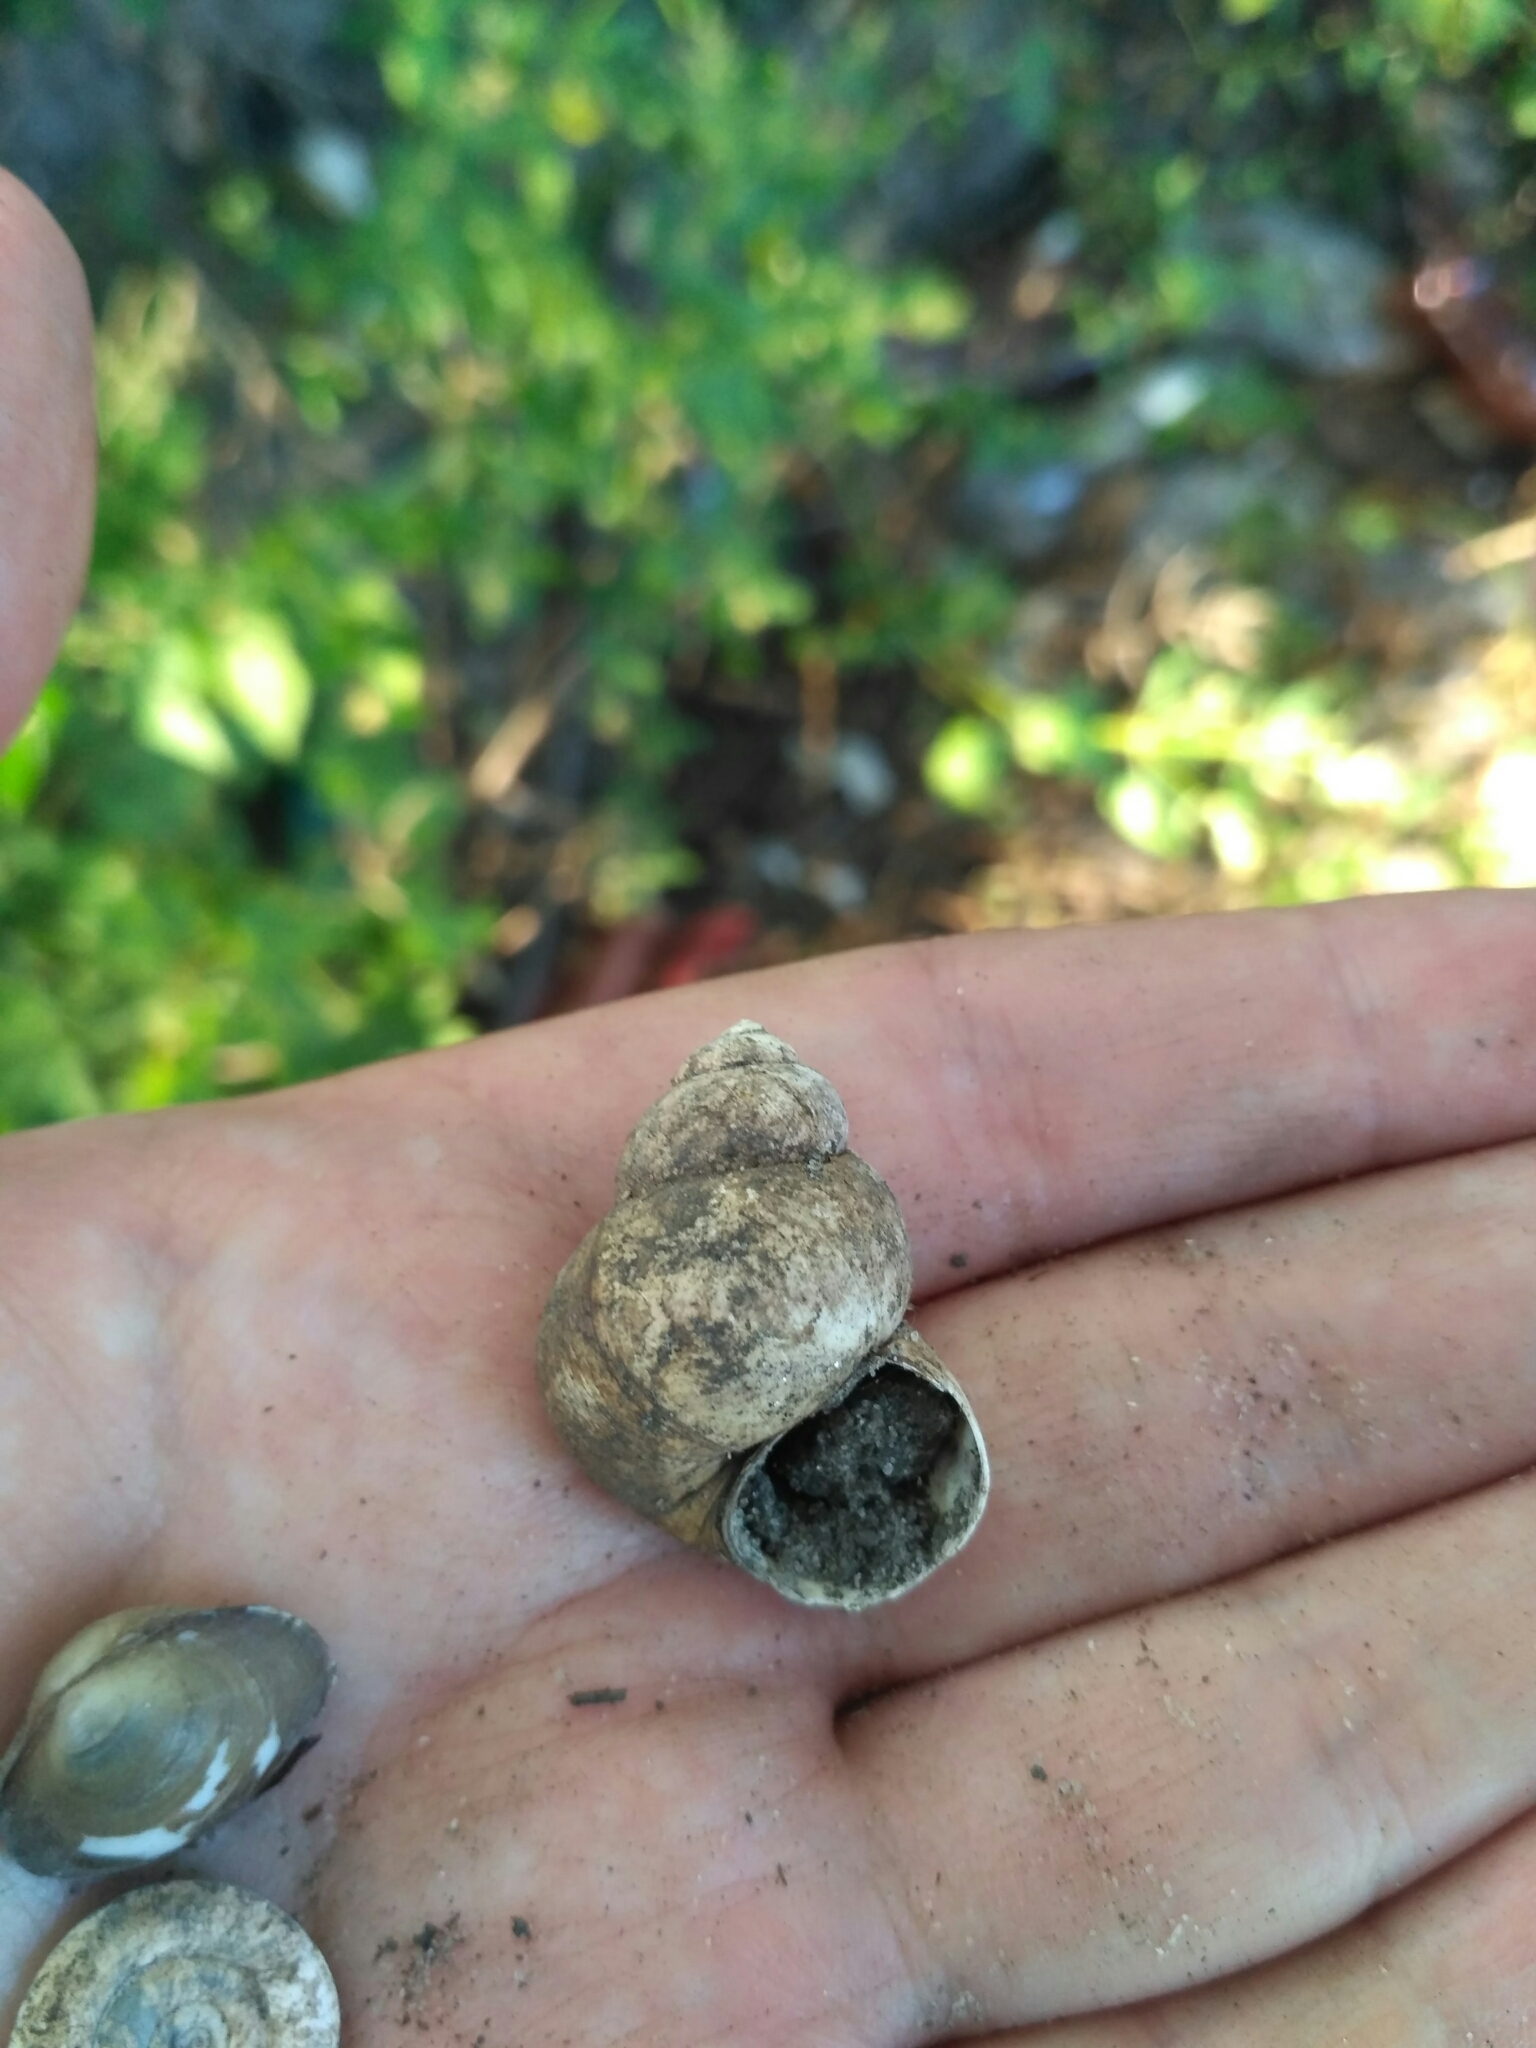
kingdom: Animalia
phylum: Mollusca
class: Gastropoda
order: Architaenioglossa
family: Viviparidae
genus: Viviparus
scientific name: Viviparus viviparus
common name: River snail
